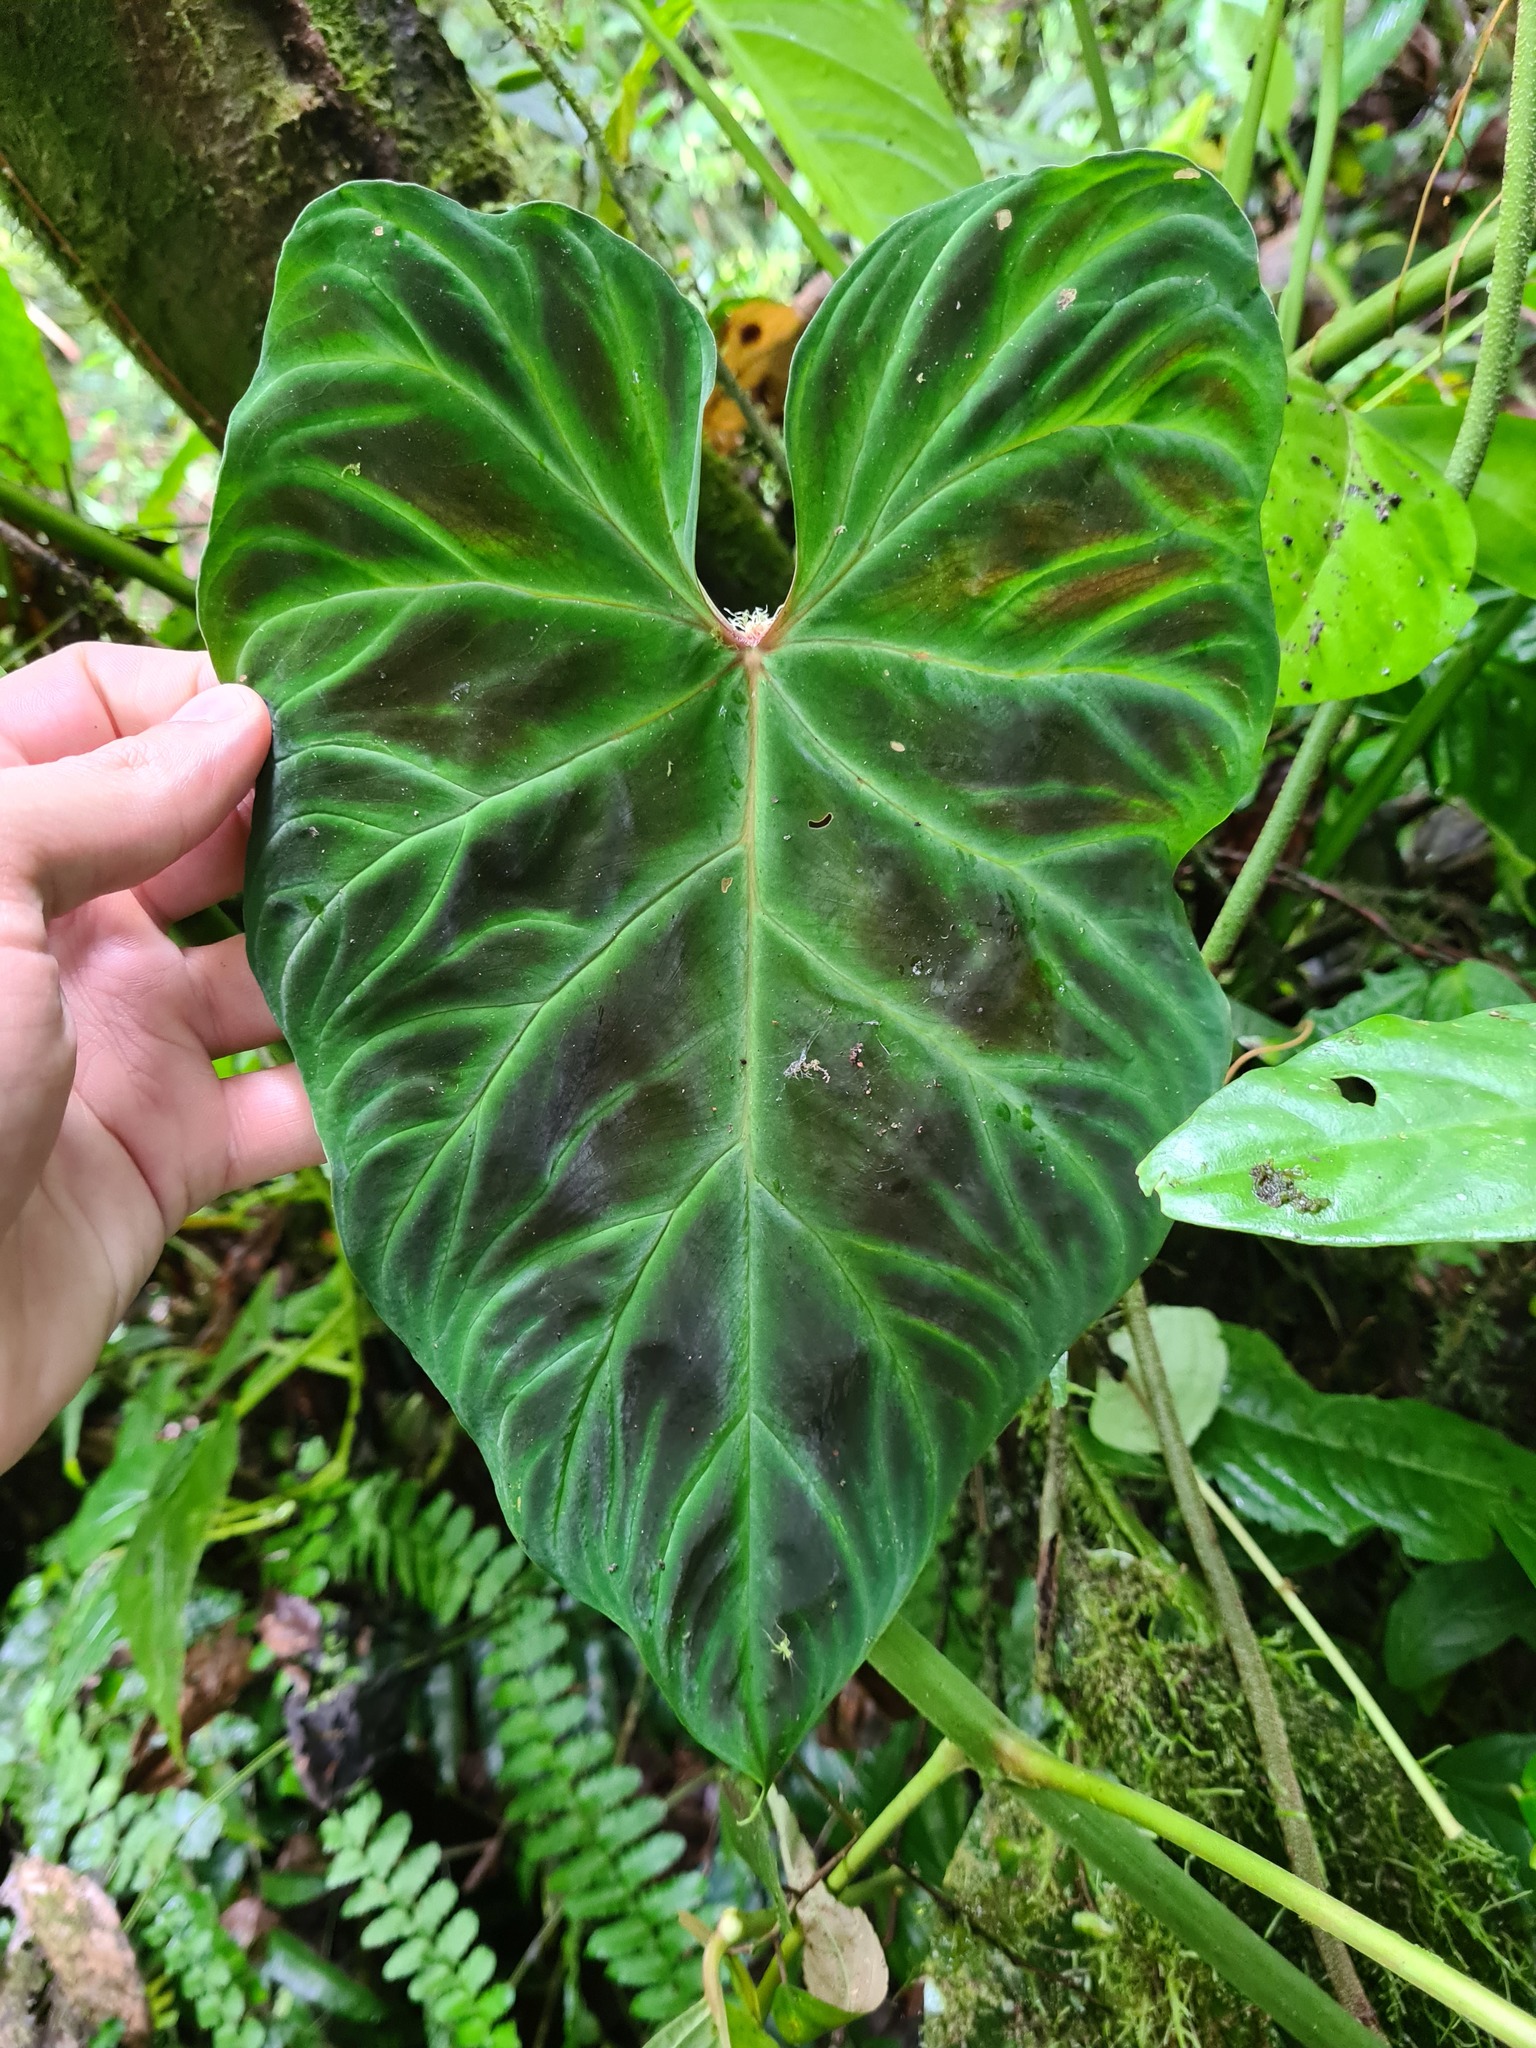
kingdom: Plantae
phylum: Tracheophyta
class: Liliopsida
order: Alismatales
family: Araceae
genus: Philodendron
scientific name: Philodendron verrucosum
